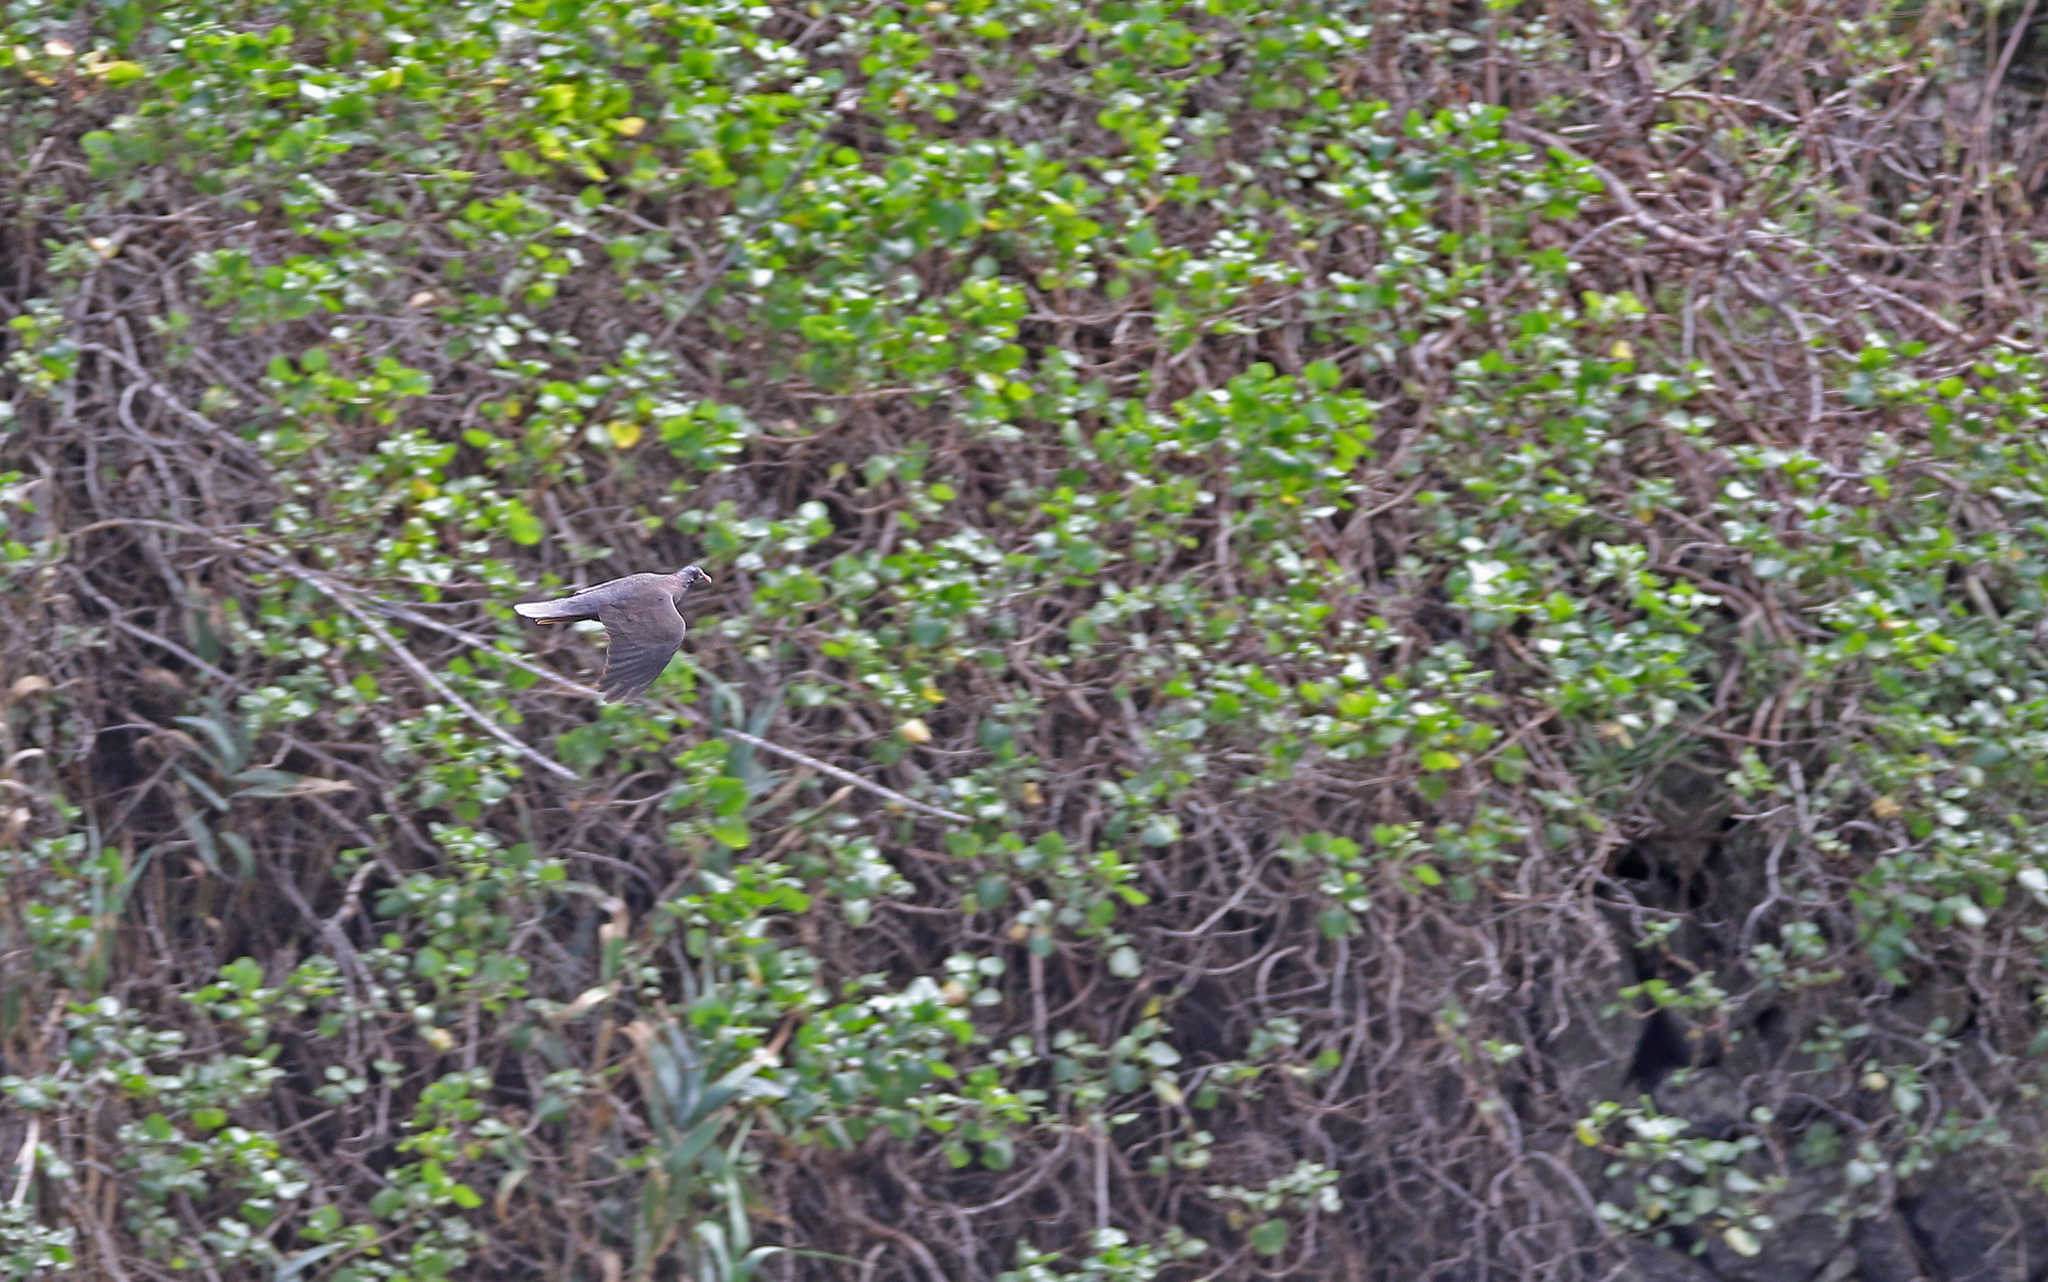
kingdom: Animalia
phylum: Chordata
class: Aves
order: Columbiformes
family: Columbidae
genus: Columba
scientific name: Columba junoniae
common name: Laurel pigeon
